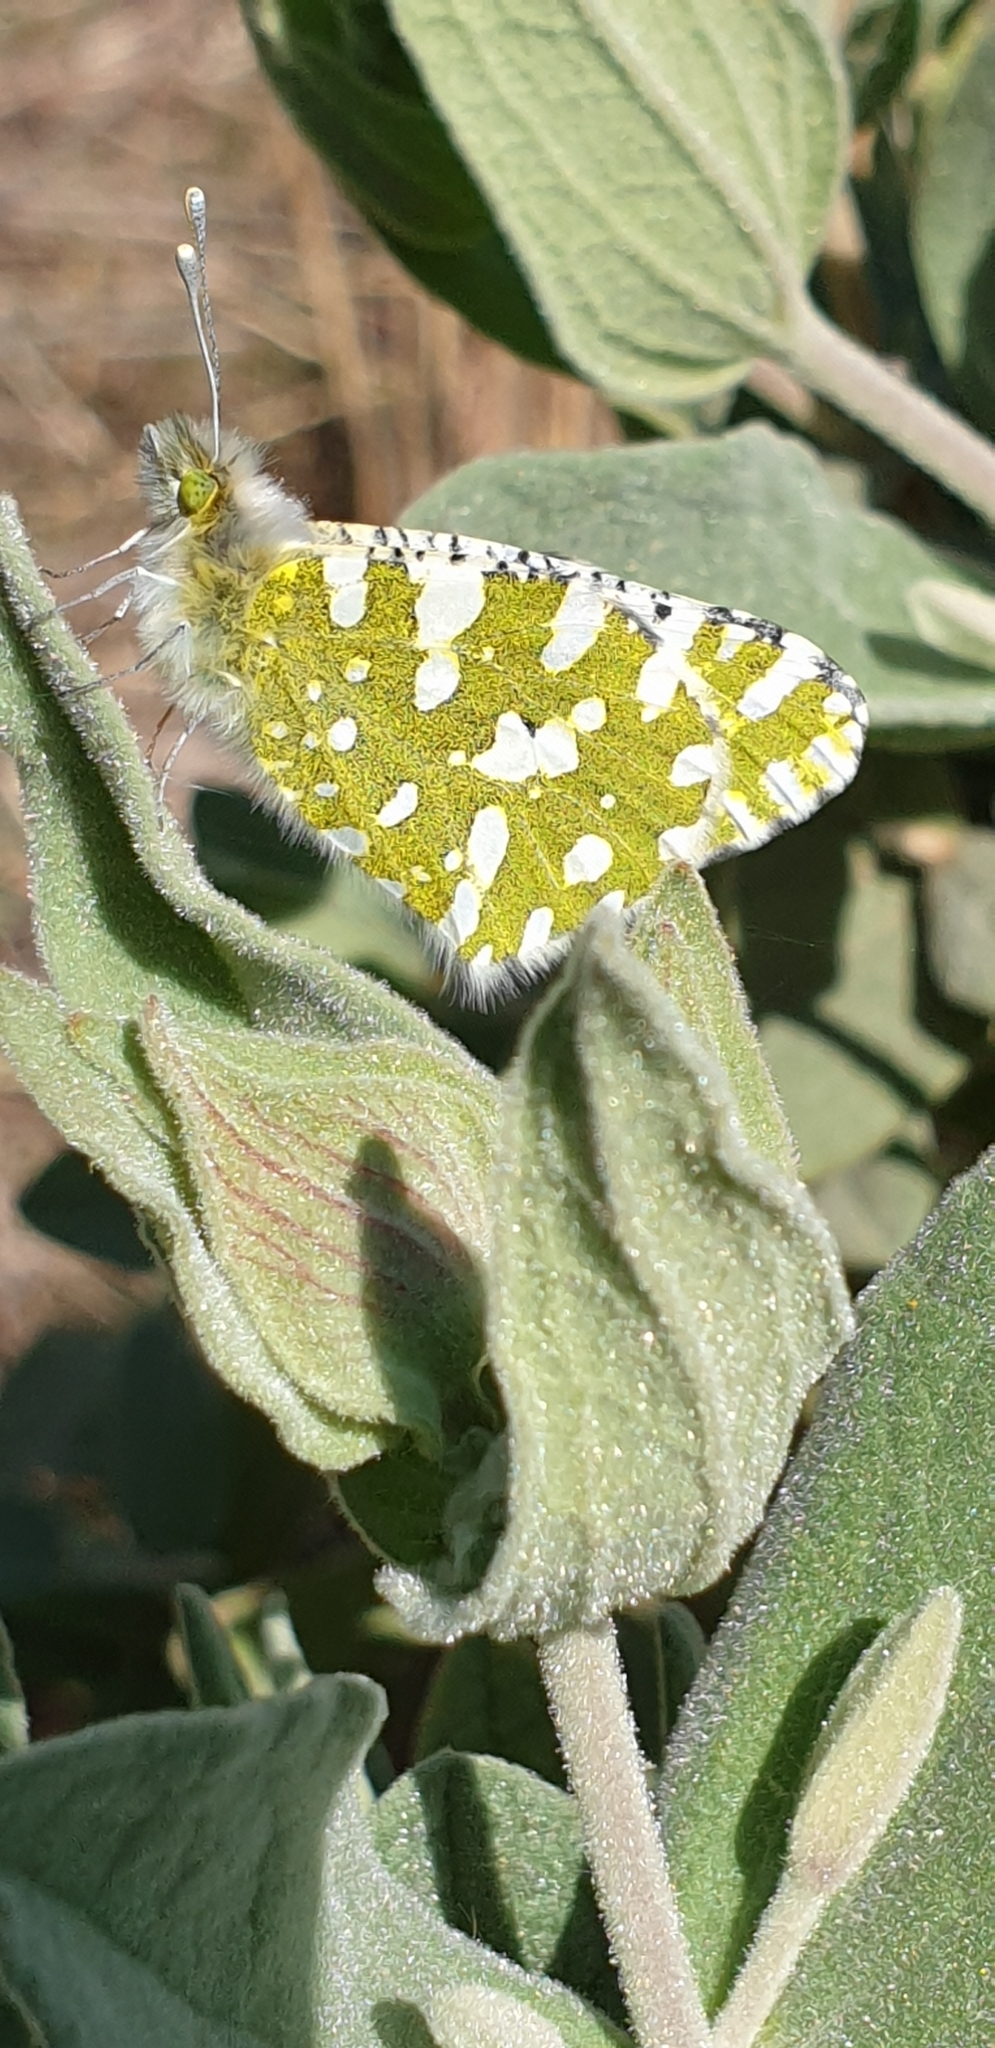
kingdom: Animalia
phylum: Arthropoda
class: Insecta
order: Lepidoptera
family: Pieridae
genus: Euchloe
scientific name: Euchloe crameri
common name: Western dappled white
